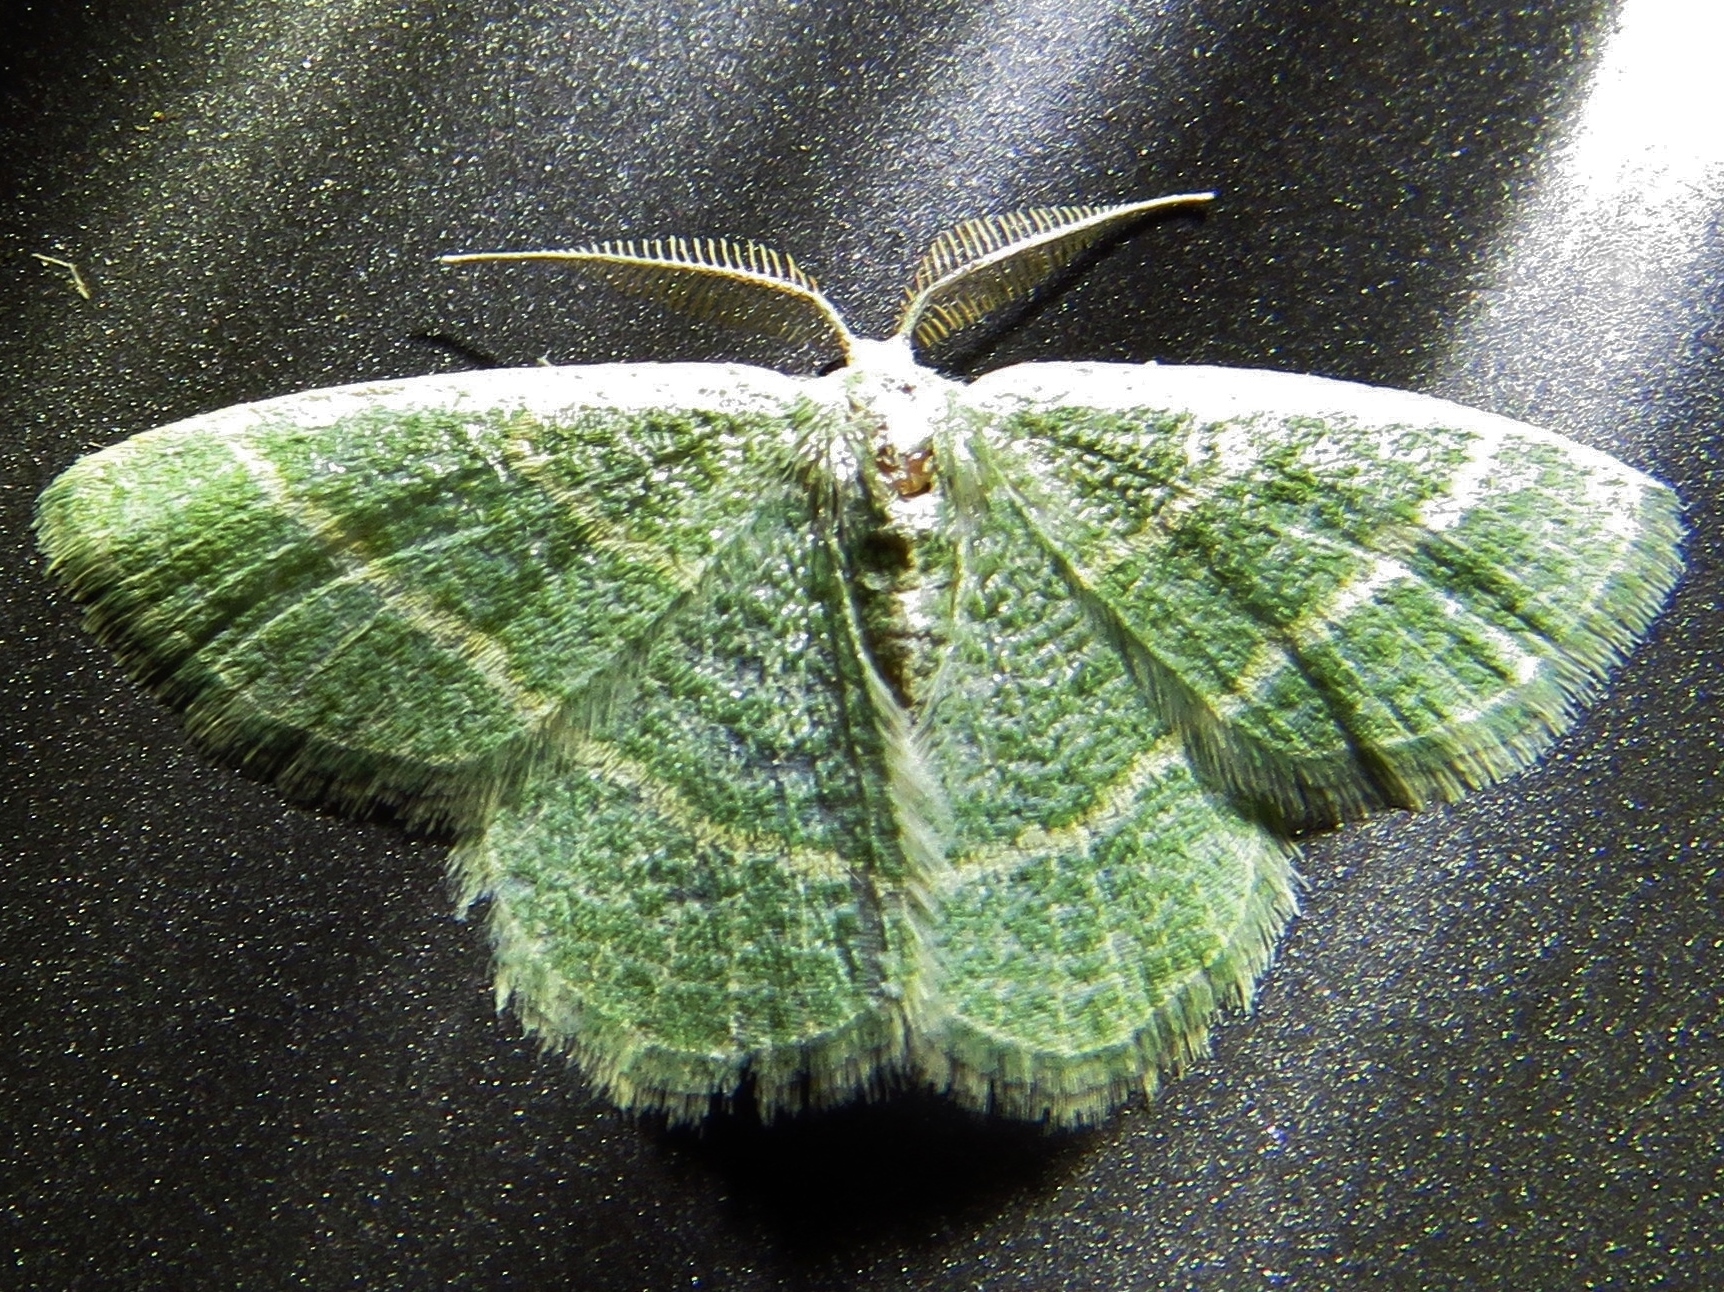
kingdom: Animalia
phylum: Arthropoda
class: Insecta
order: Lepidoptera
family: Geometridae
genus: Chlorochlamys
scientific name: Chlorochlamys chloroleucaria
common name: Blackberry looper
